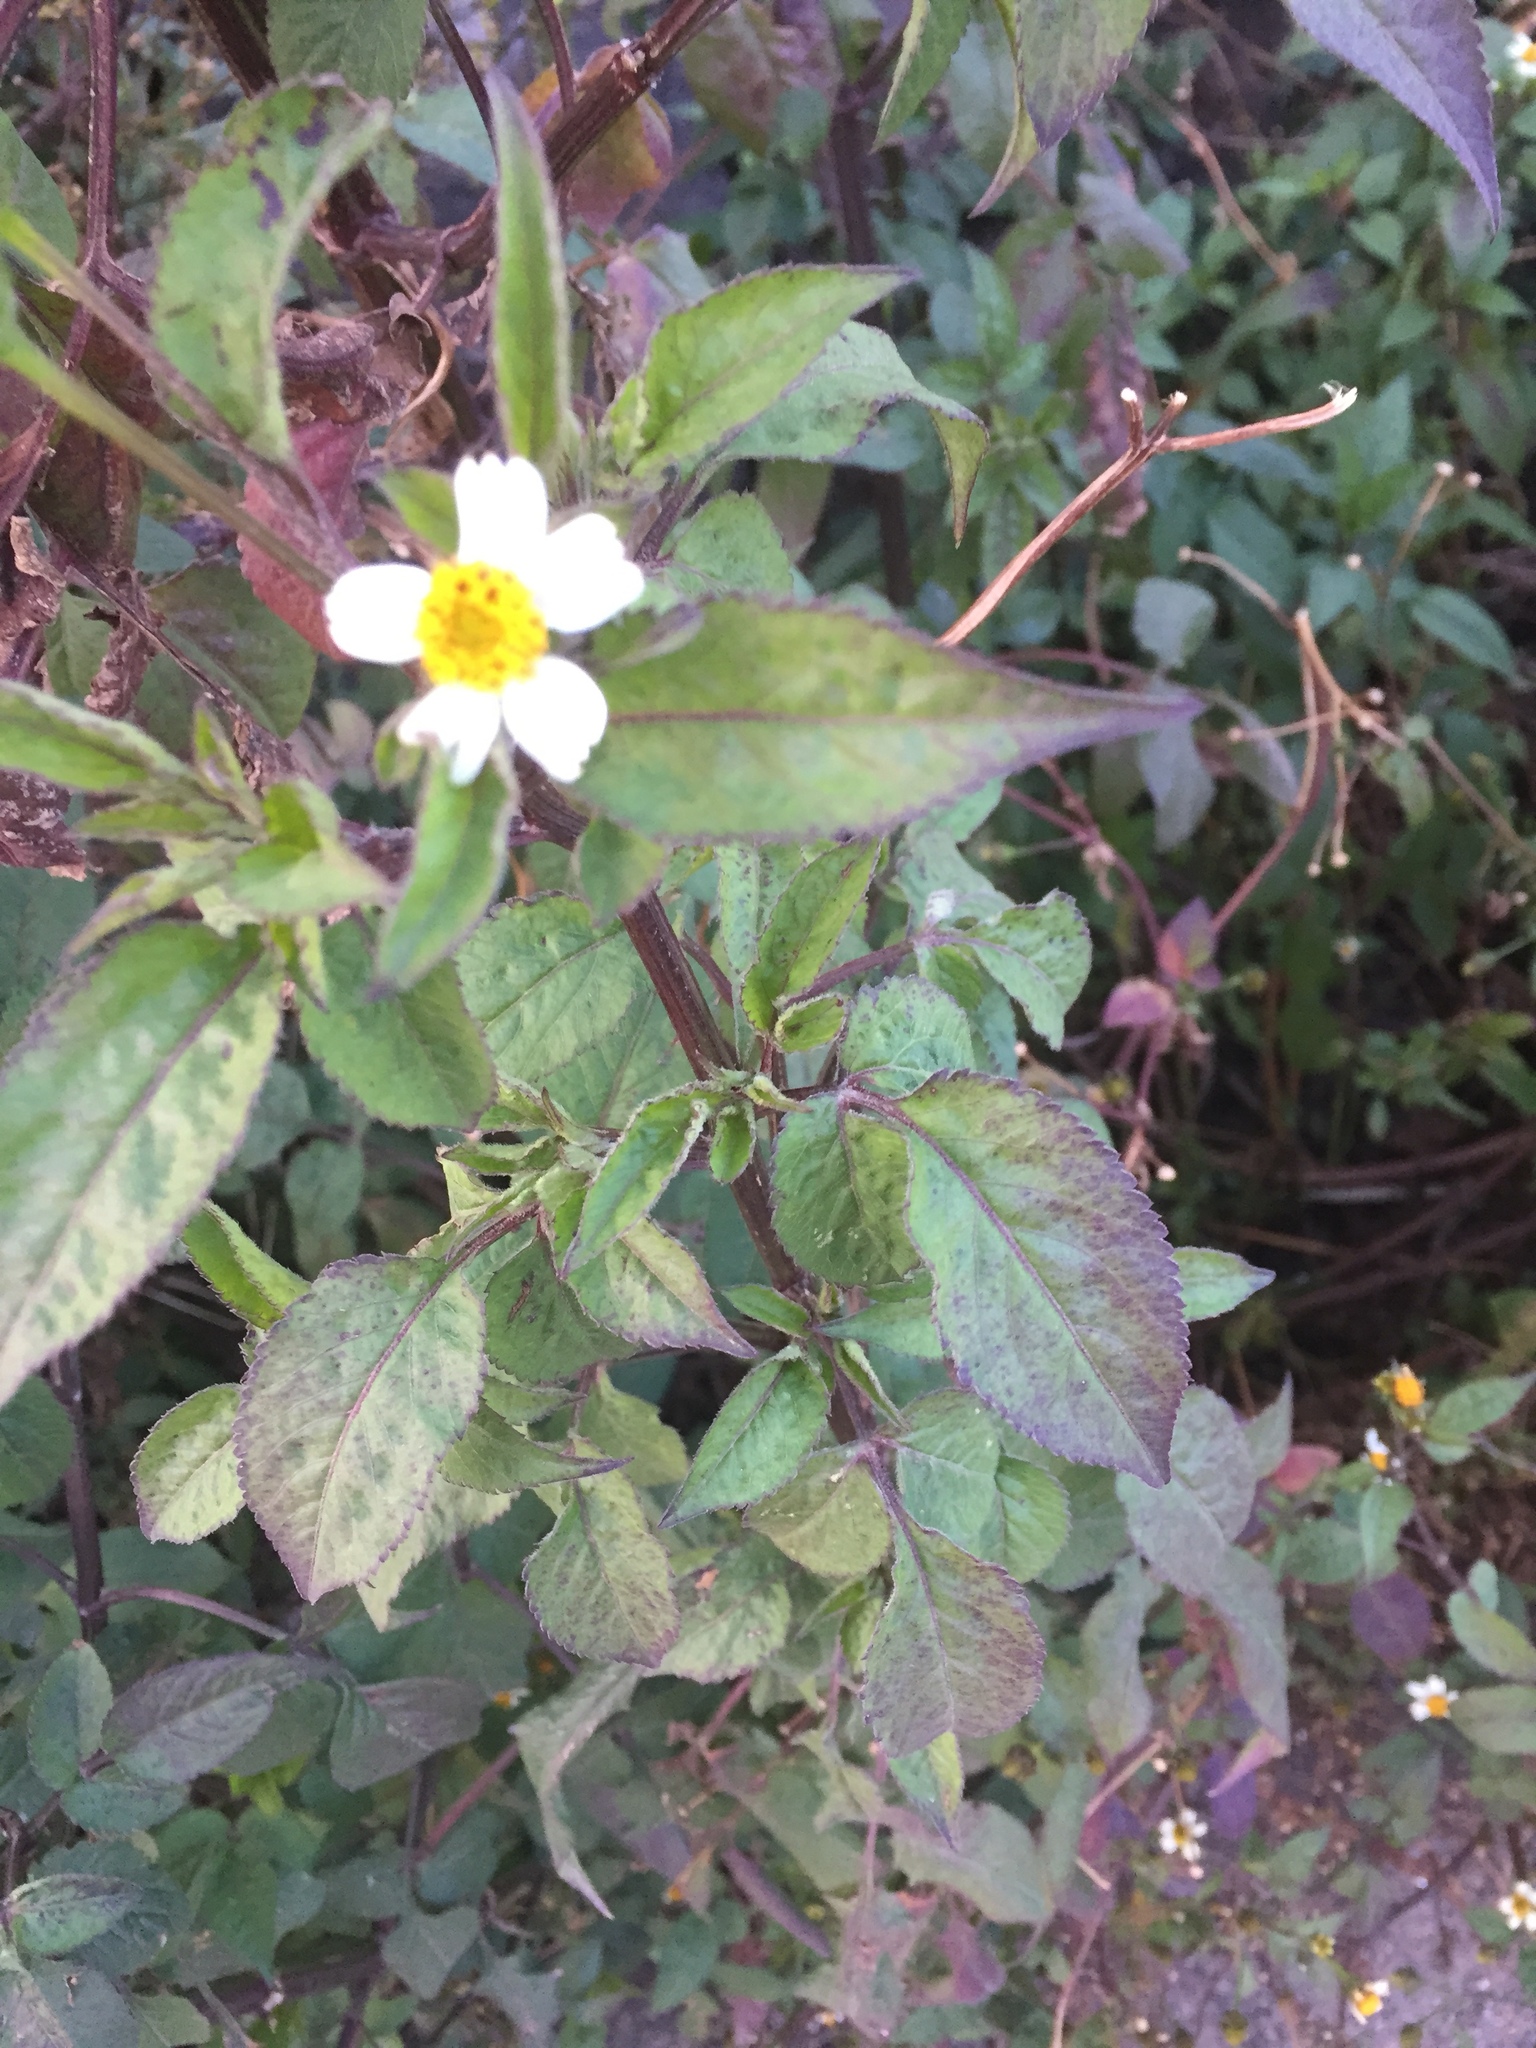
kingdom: Plantae
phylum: Tracheophyta
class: Magnoliopsida
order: Asterales
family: Asteraceae
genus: Bidens
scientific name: Bidens pilosa
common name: Black-jack
